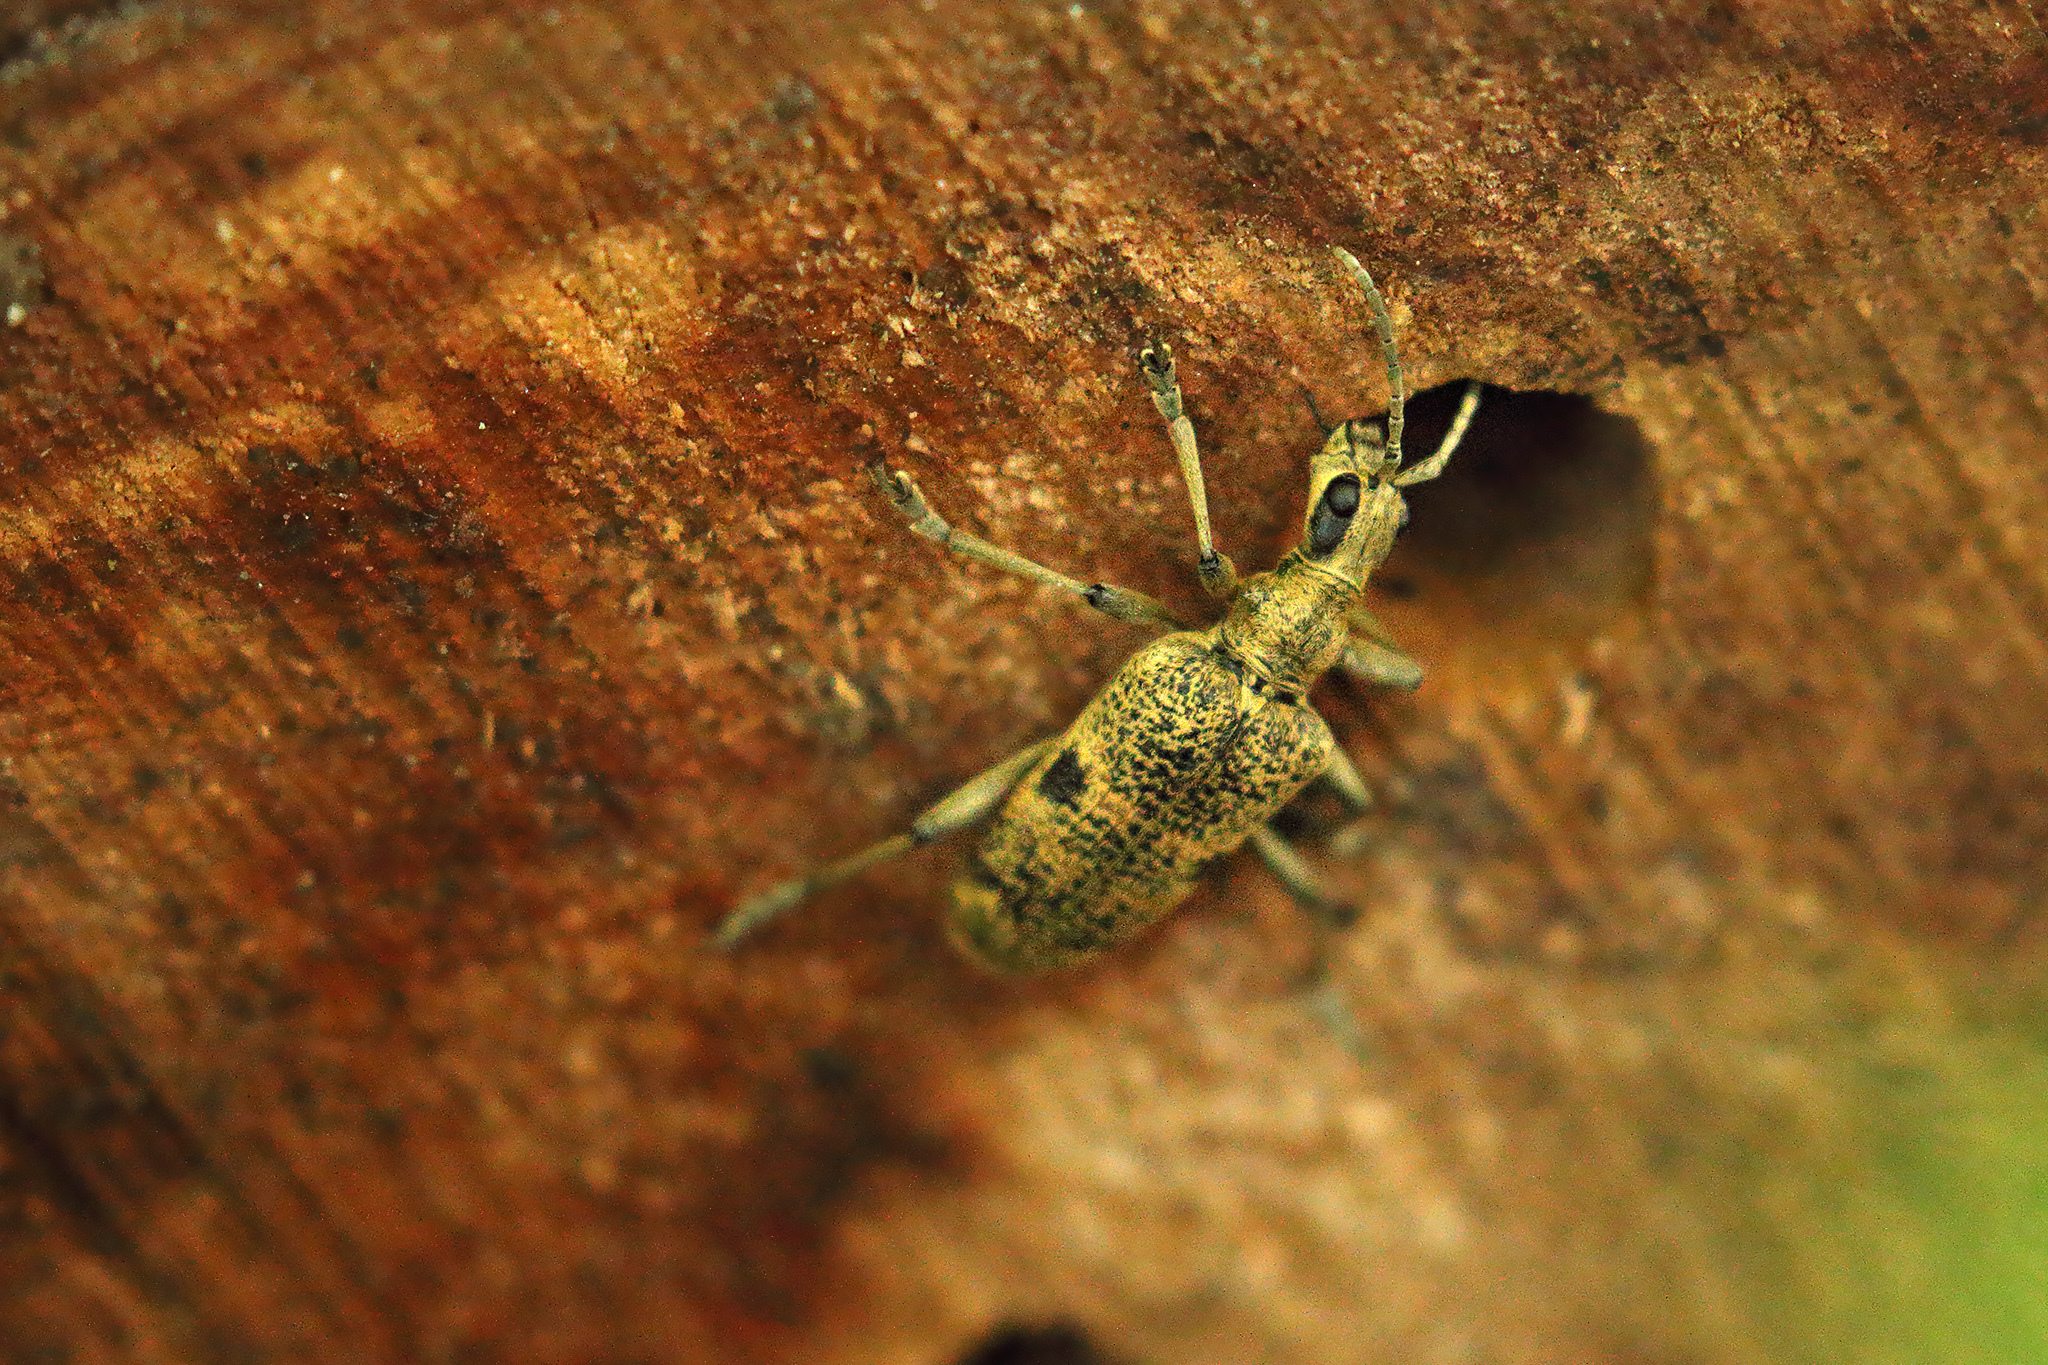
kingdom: Animalia
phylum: Arthropoda
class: Insecta
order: Coleoptera
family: Cerambycidae
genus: Rhagium
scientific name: Rhagium mordax
